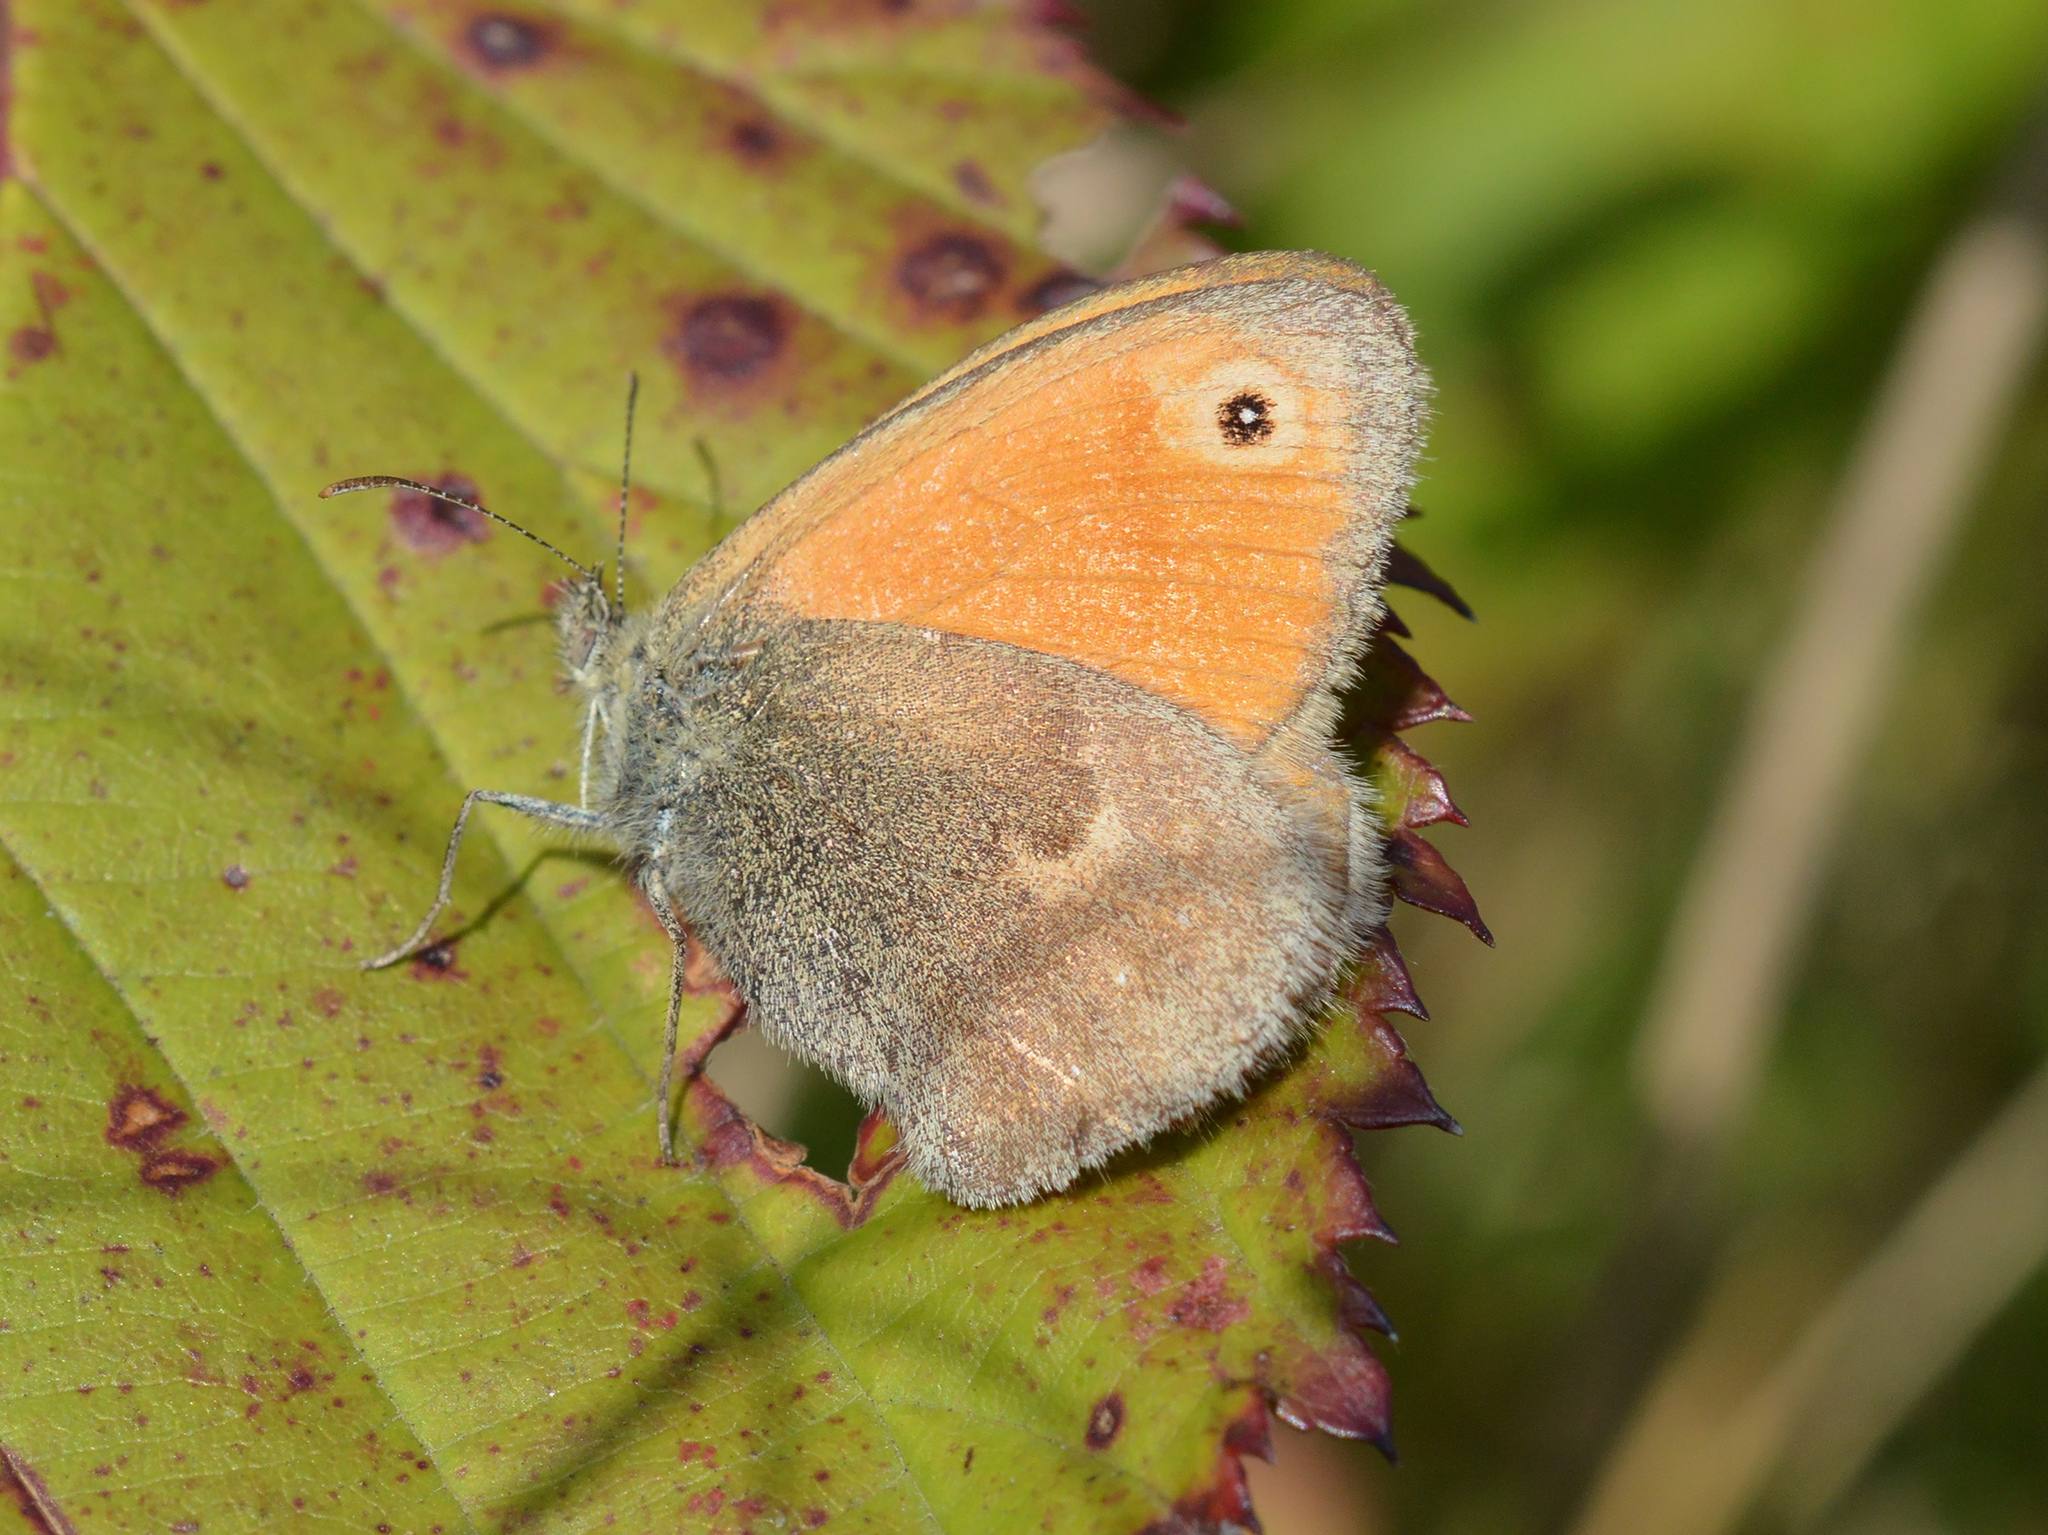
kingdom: Animalia
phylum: Arthropoda
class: Insecta
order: Lepidoptera
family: Nymphalidae
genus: Coenonympha
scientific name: Coenonympha pamphilus
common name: Small heath
